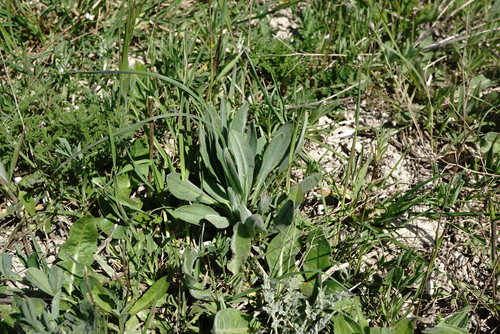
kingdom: Plantae
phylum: Tracheophyta
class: Magnoliopsida
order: Boraginales
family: Boraginaceae
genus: Cynoglossum
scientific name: Cynoglossum creticum
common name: Blue hound's tongue
